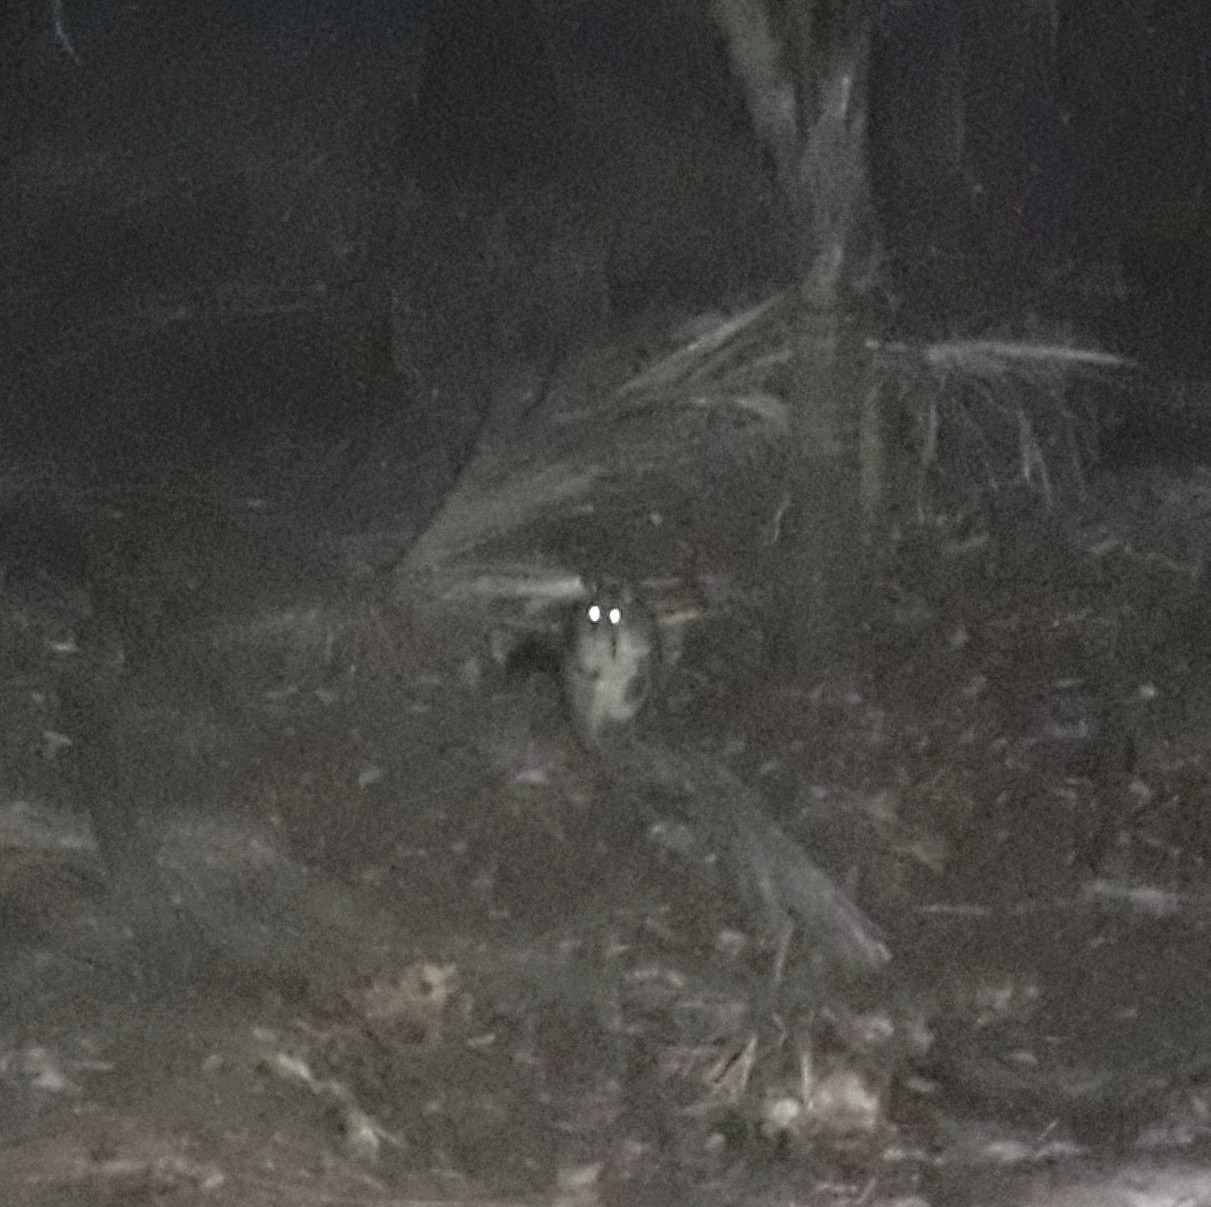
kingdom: Animalia
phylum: Chordata
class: Mammalia
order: Diprotodontia
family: Phalangeridae
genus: Trichosurus
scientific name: Trichosurus vulpecula
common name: Common brushtail
